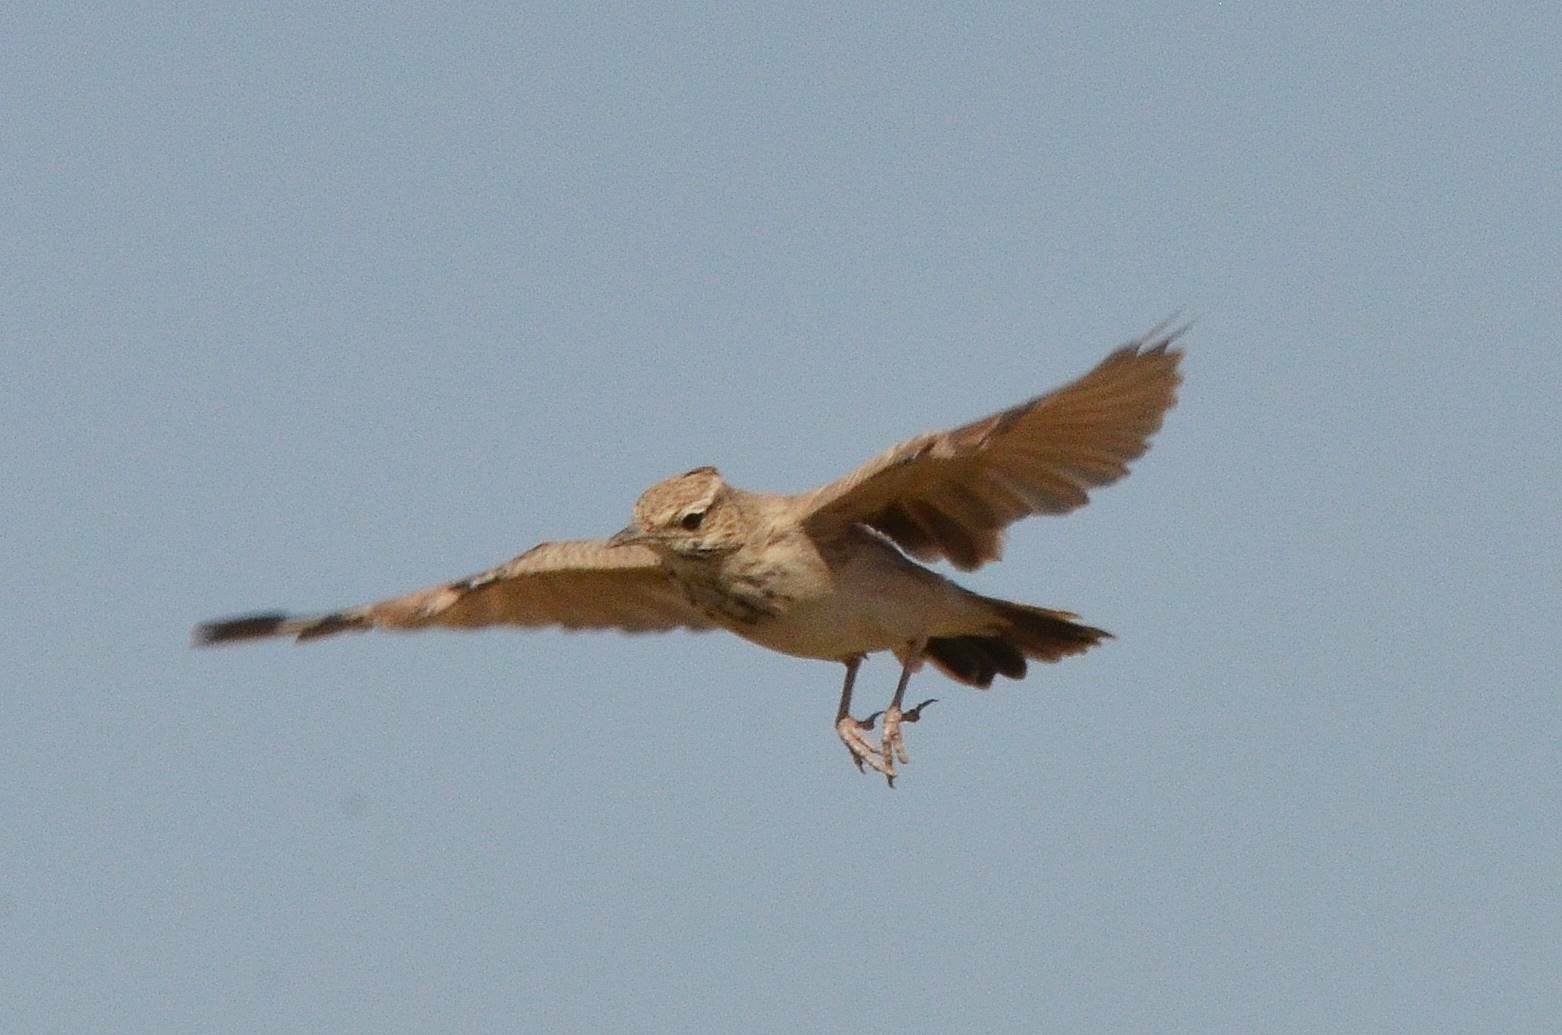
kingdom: Animalia
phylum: Chordata
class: Aves
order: Passeriformes
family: Alaudidae
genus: Galerida
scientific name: Galerida cristata
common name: Crested lark
